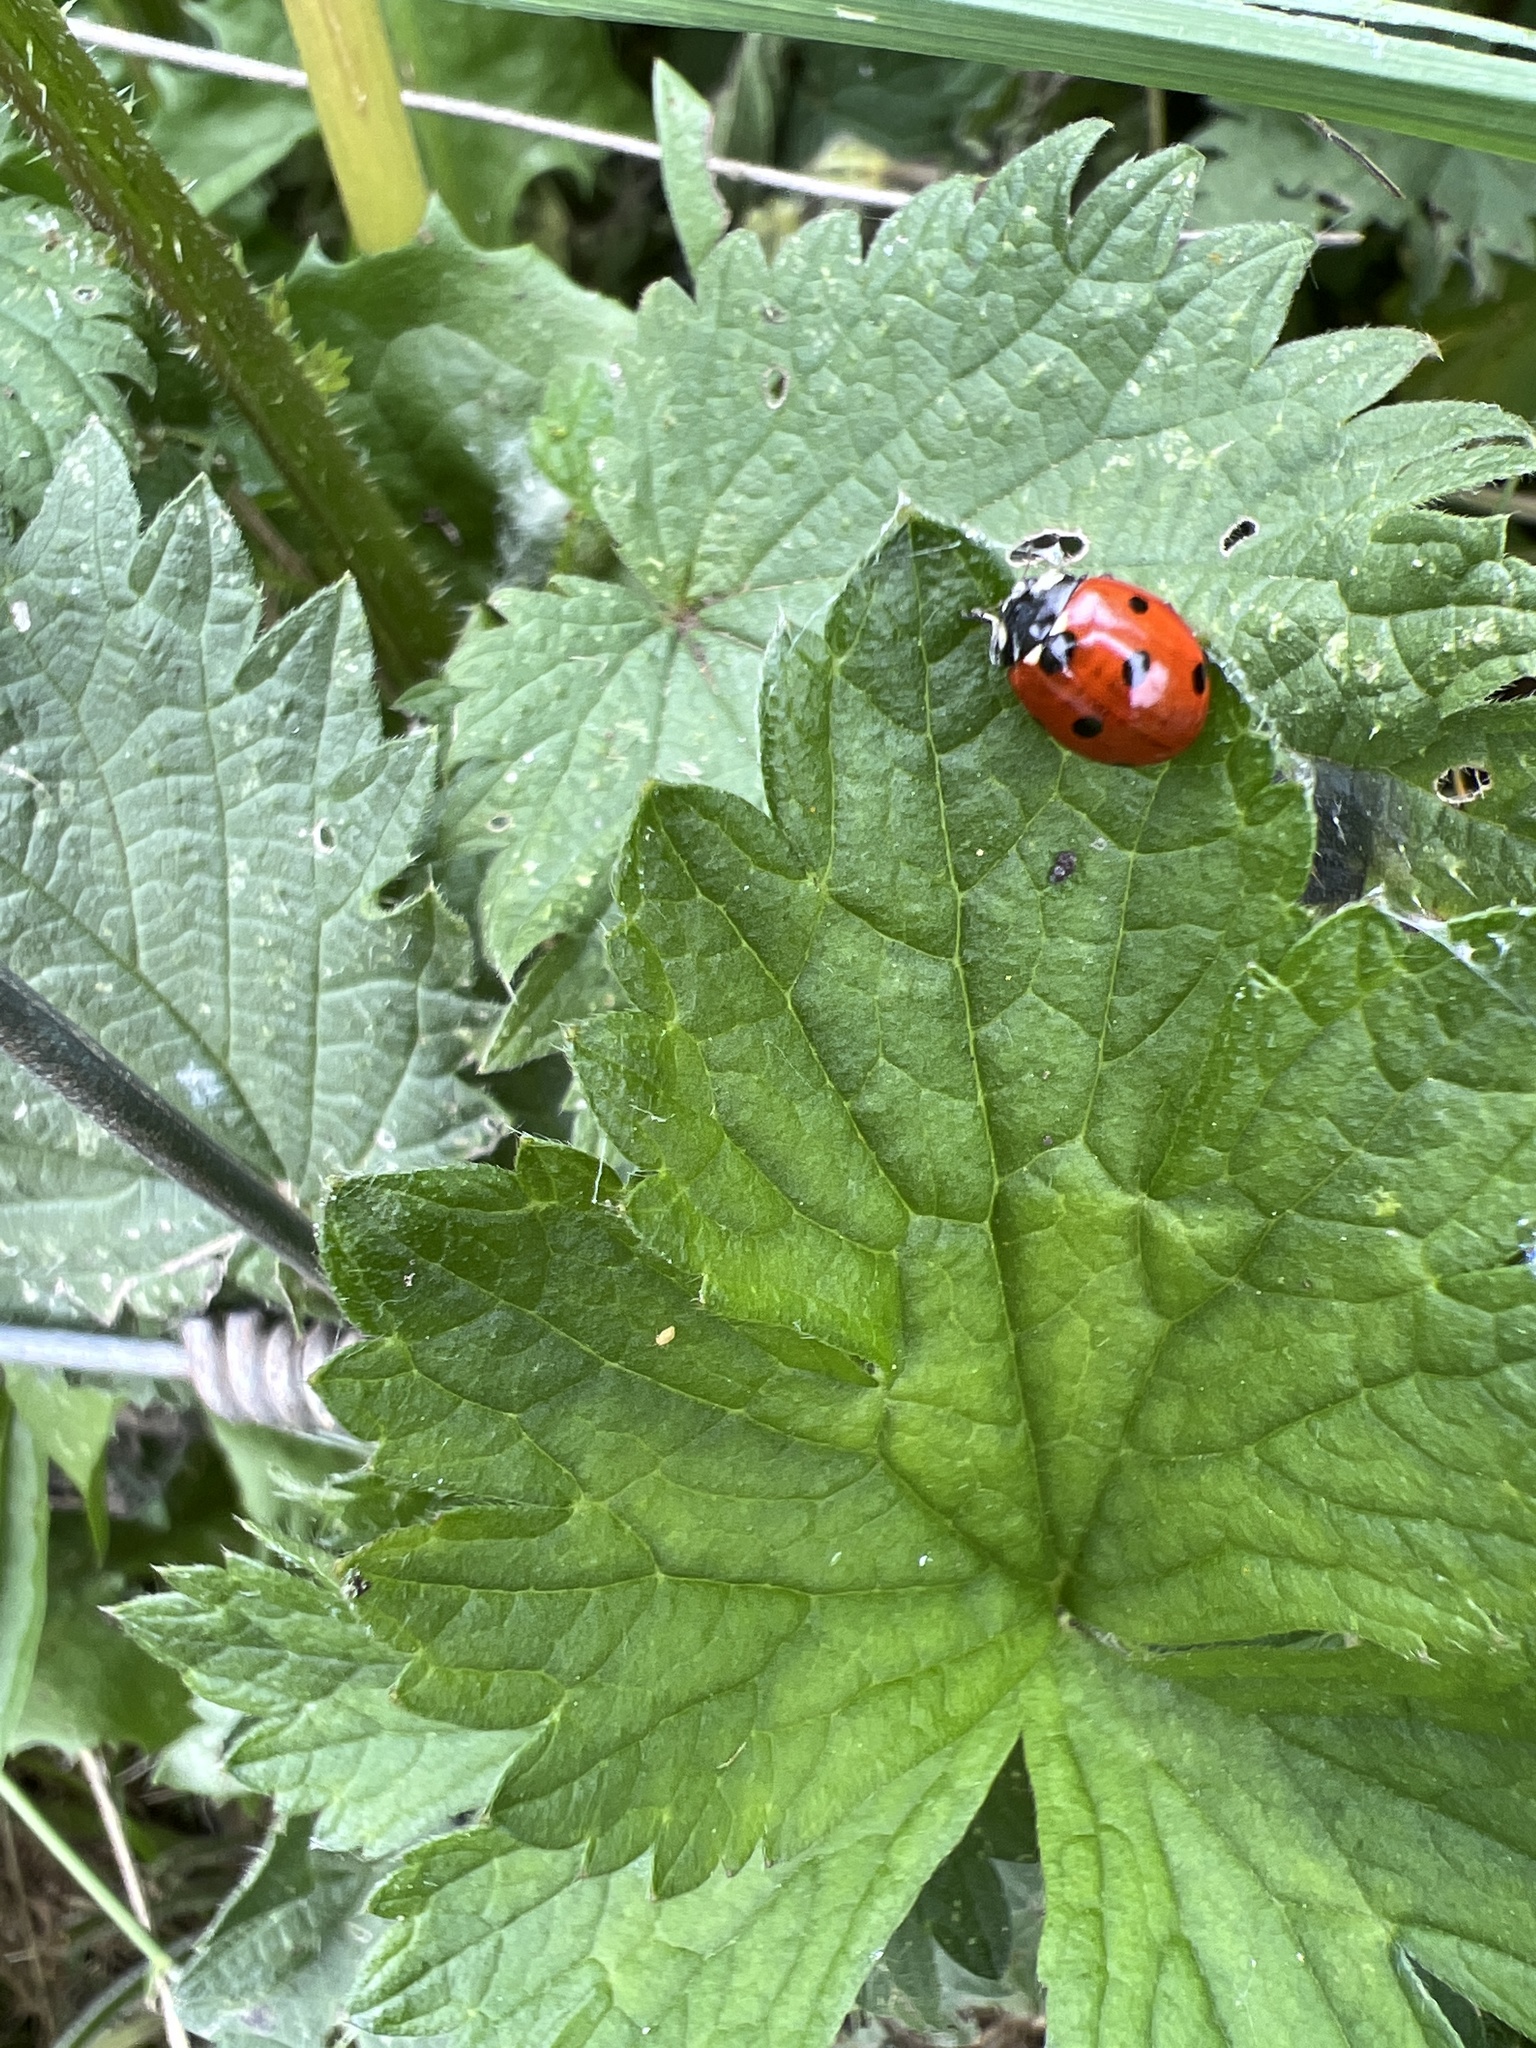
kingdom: Animalia
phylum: Arthropoda
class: Insecta
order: Coleoptera
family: Coccinellidae
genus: Coccinella
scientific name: Coccinella septempunctata
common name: Sevenspotted lady beetle
